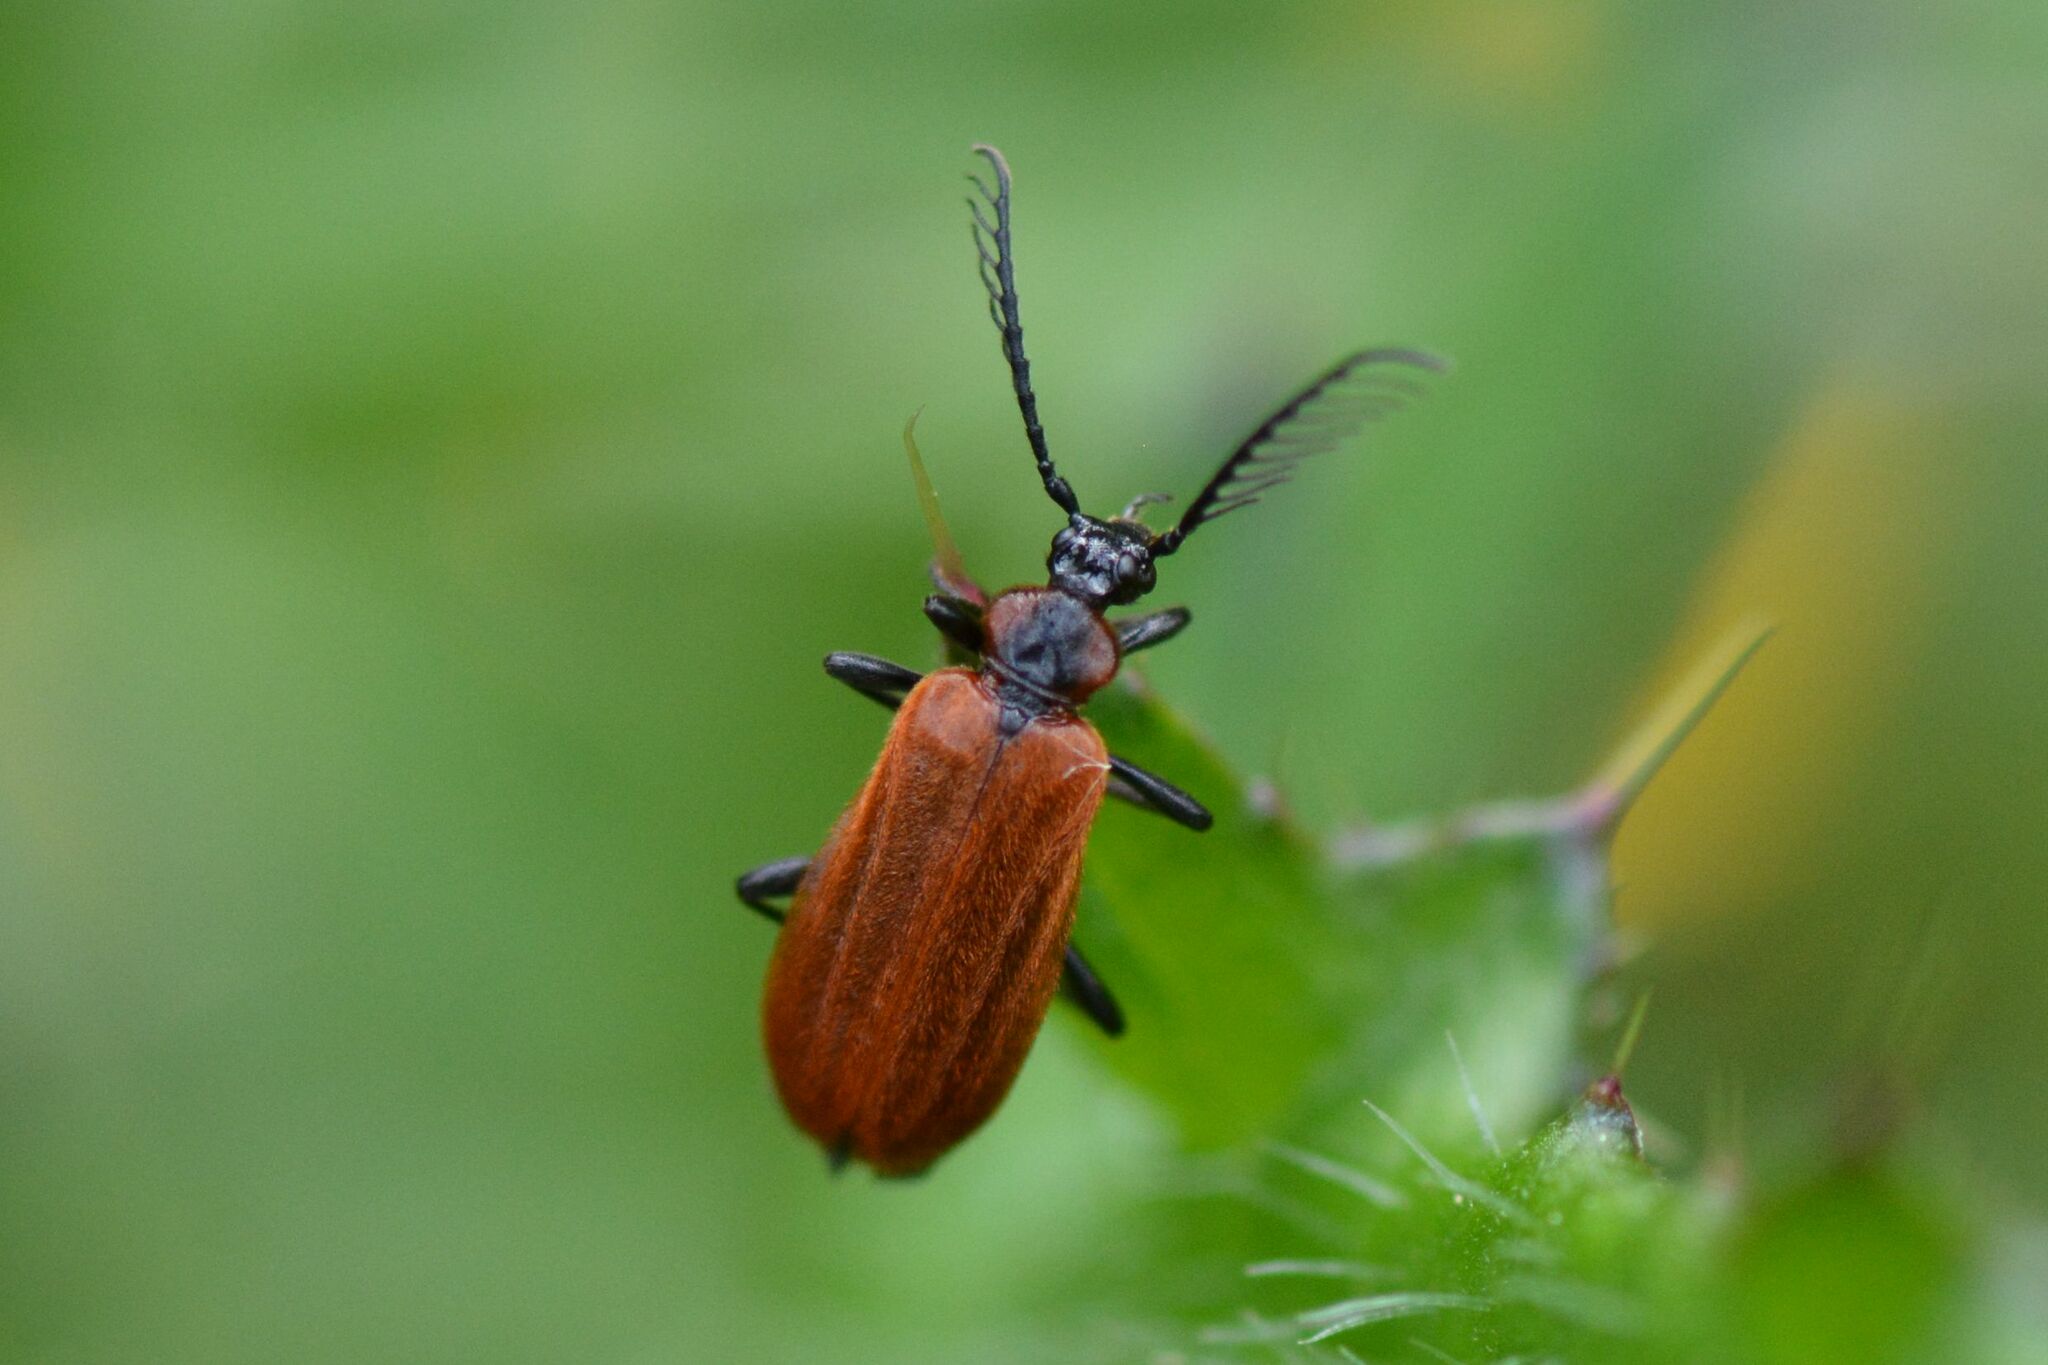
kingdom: Animalia
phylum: Arthropoda
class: Insecta
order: Coleoptera
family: Pyrochroidae
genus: Schizotus
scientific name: Schizotus pectinicornis
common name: Scarce cardinal beetle
